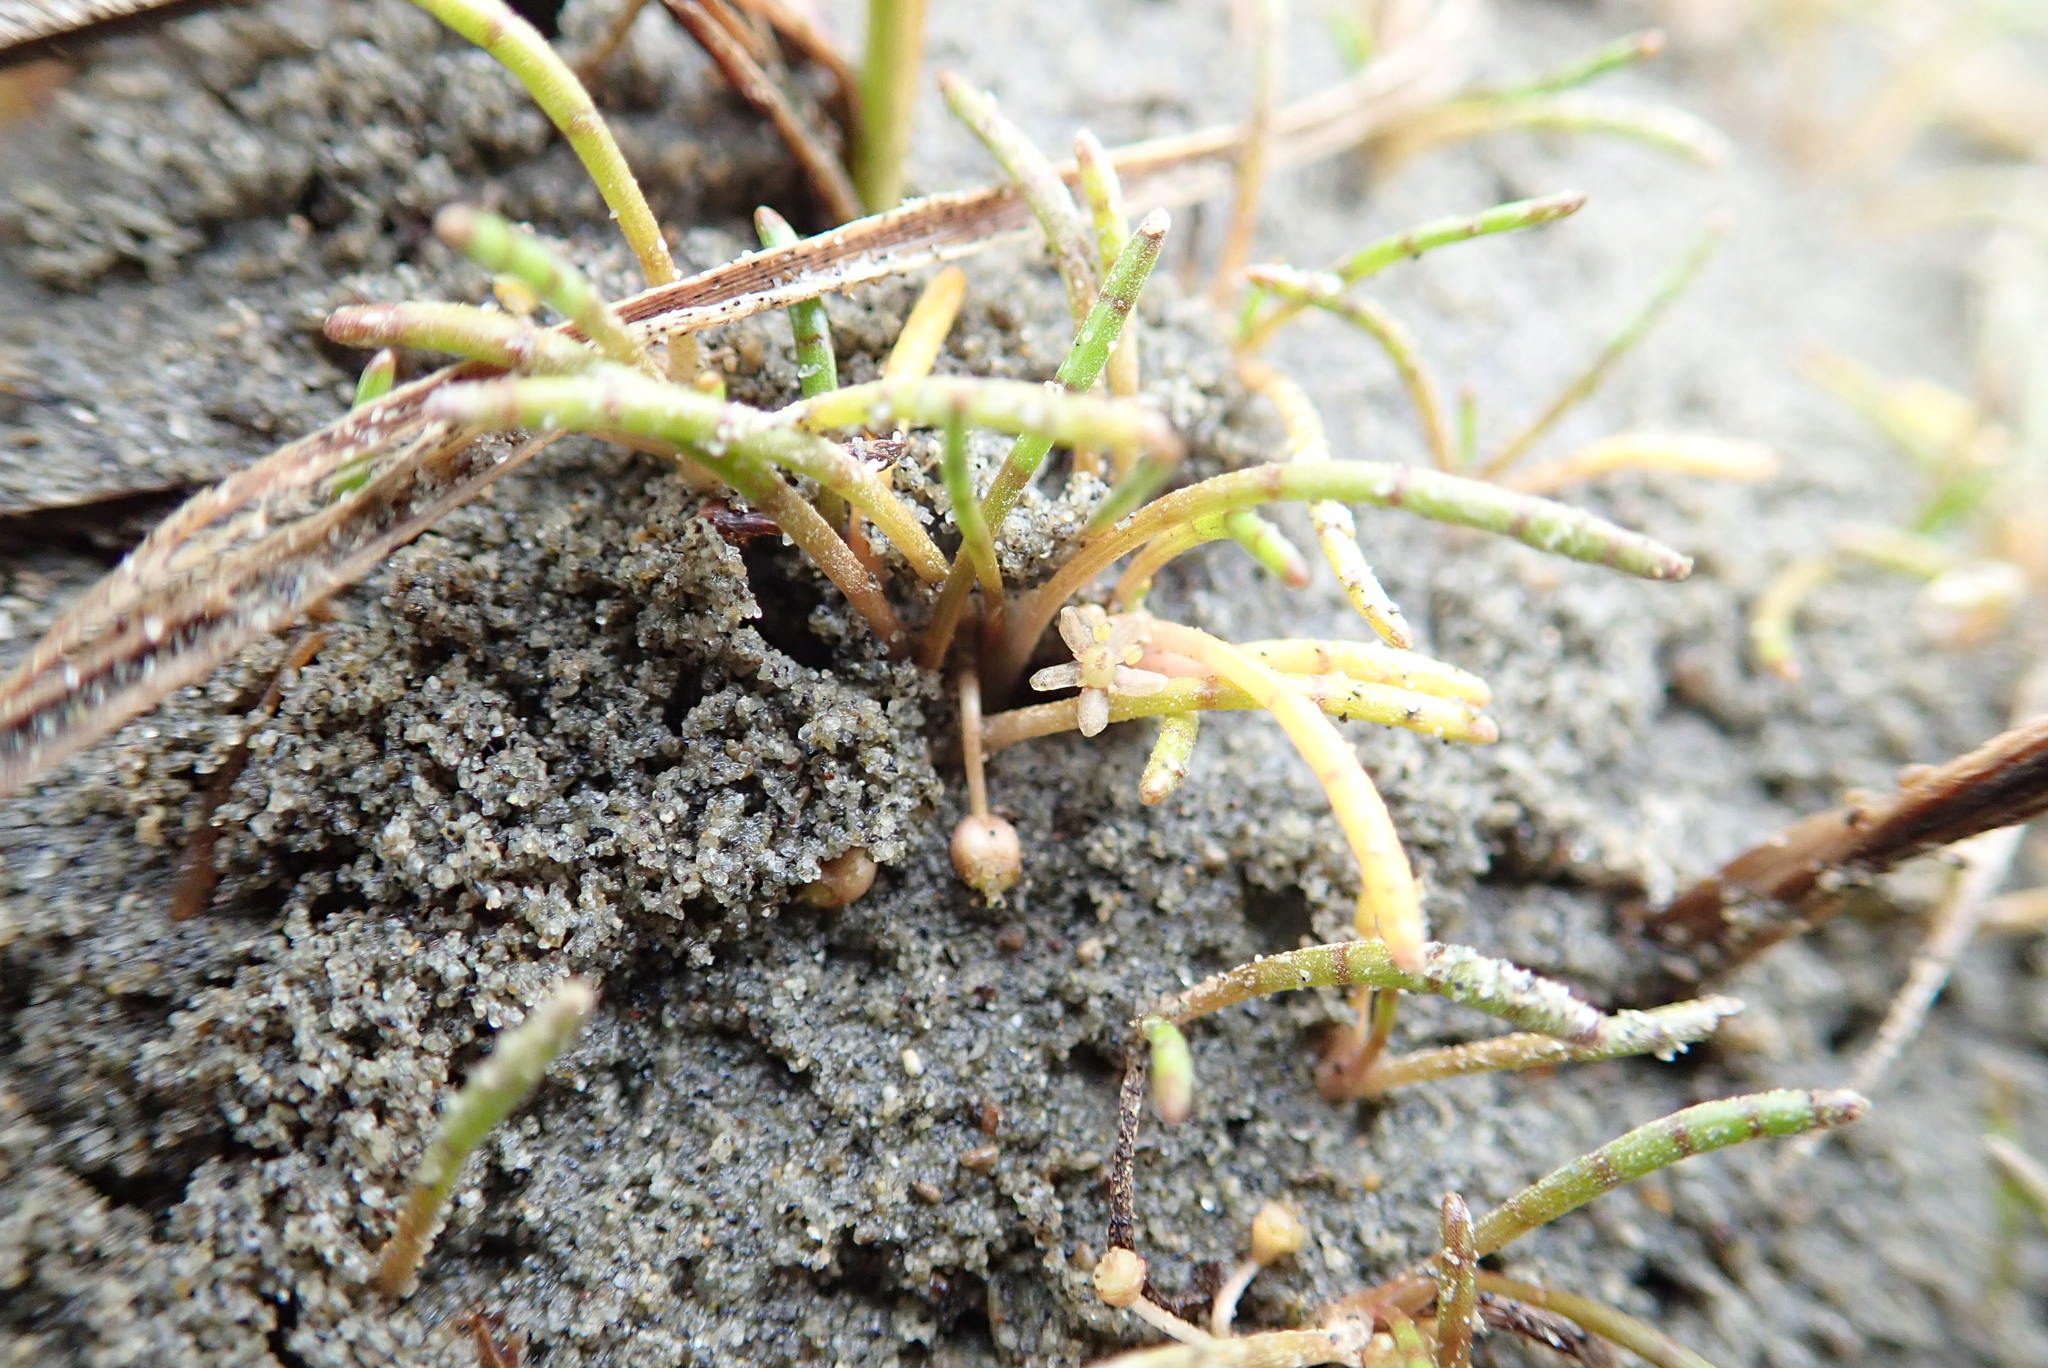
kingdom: Plantae
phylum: Tracheophyta
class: Magnoliopsida
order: Apiales
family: Apiaceae
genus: Lilaeopsis
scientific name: Lilaeopsis novae-zelandiae
